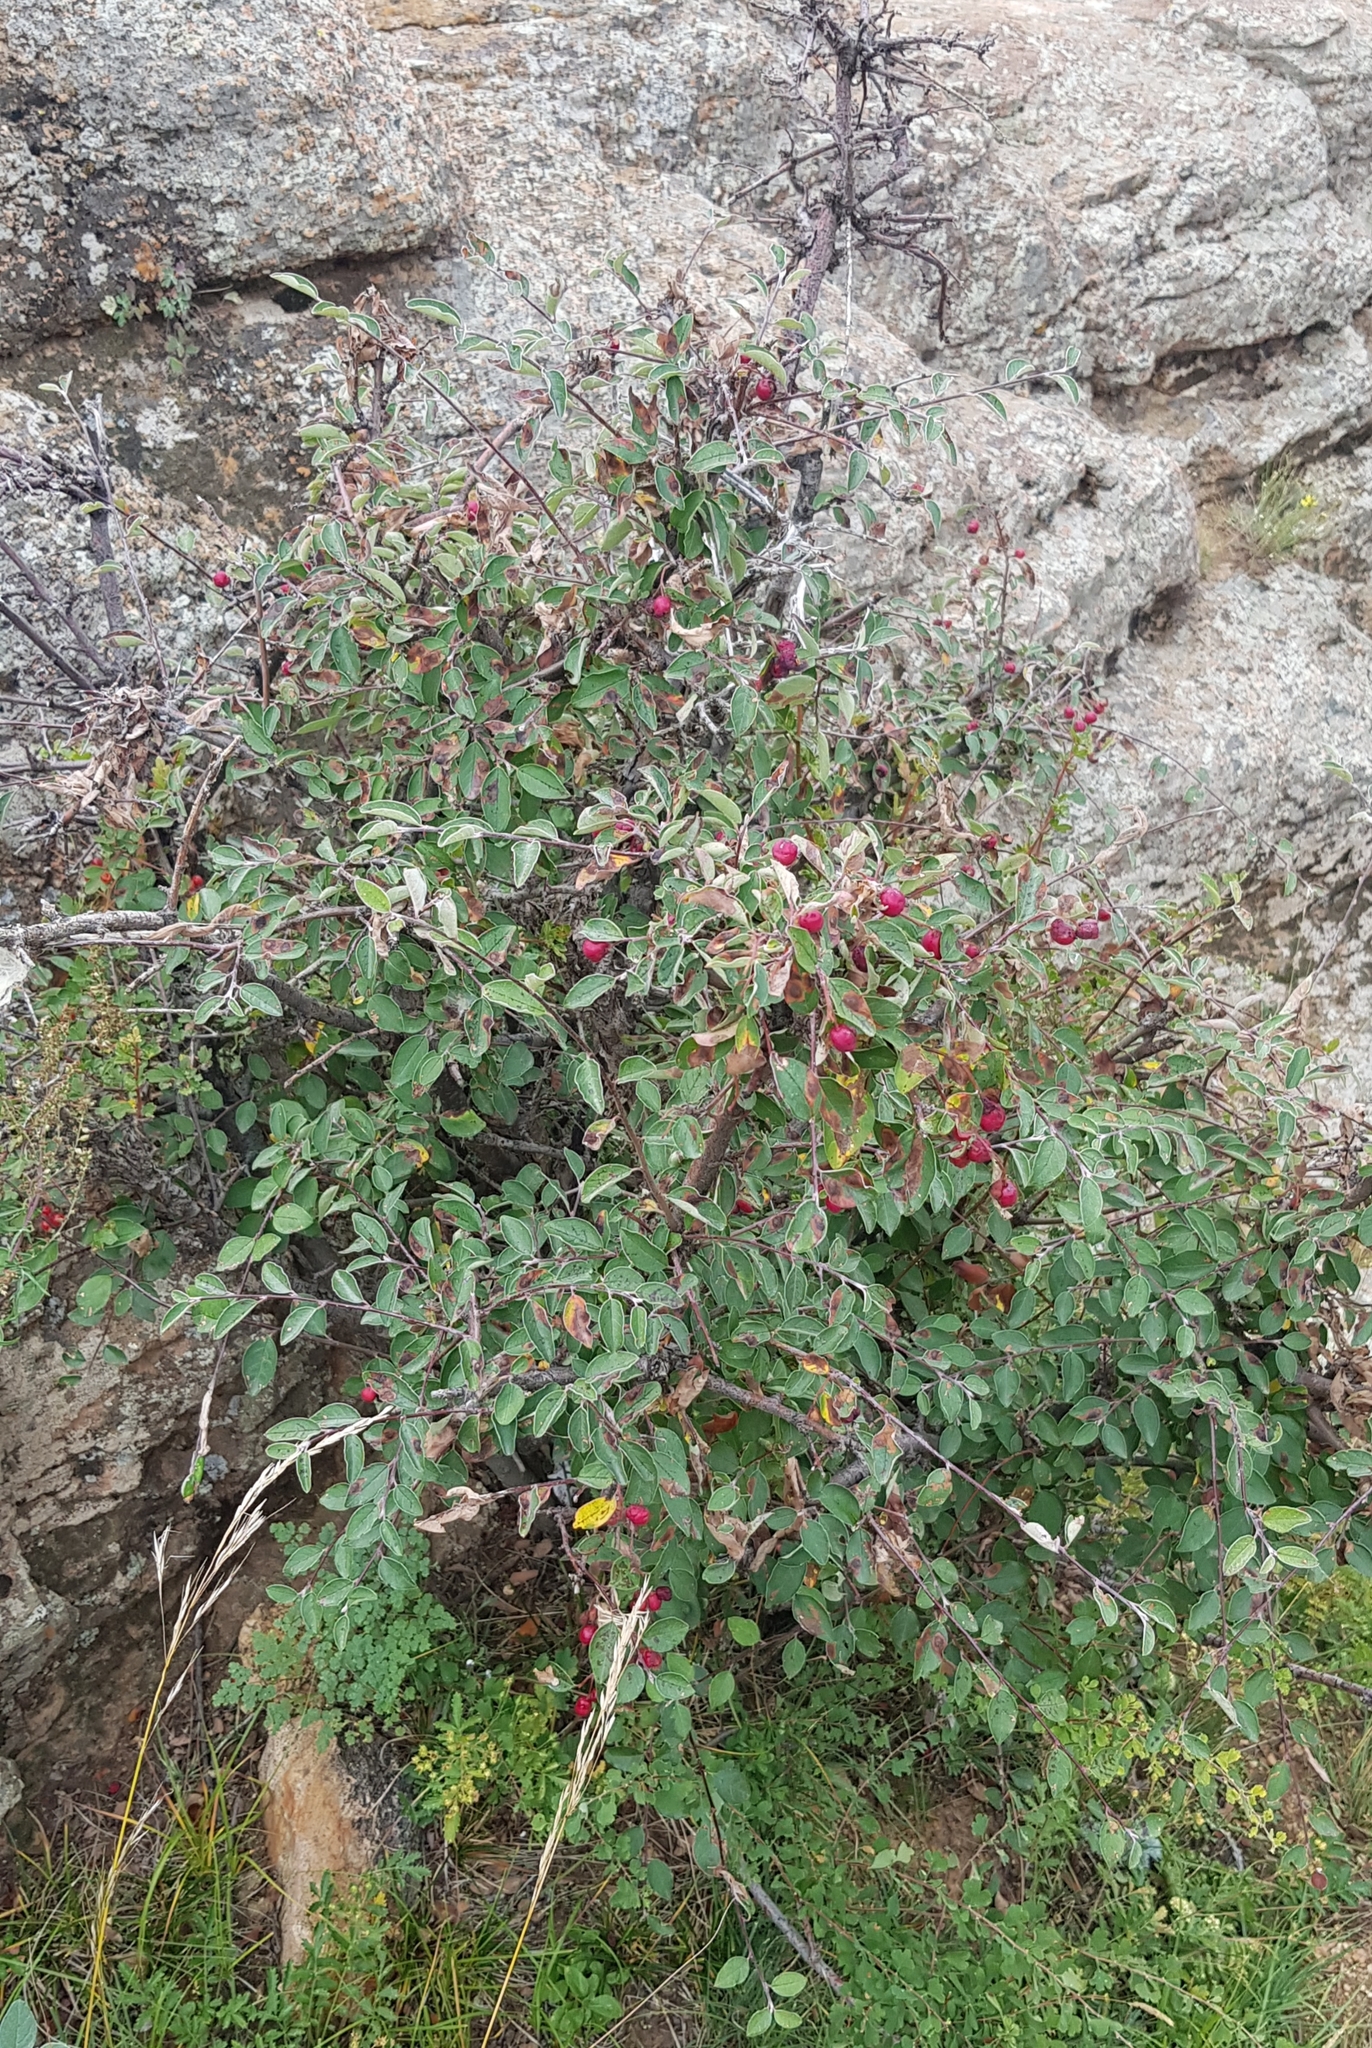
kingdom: Plantae
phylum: Tracheophyta
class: Magnoliopsida
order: Rosales
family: Rosaceae
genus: Cotoneaster
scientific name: Cotoneaster melanocarpus
